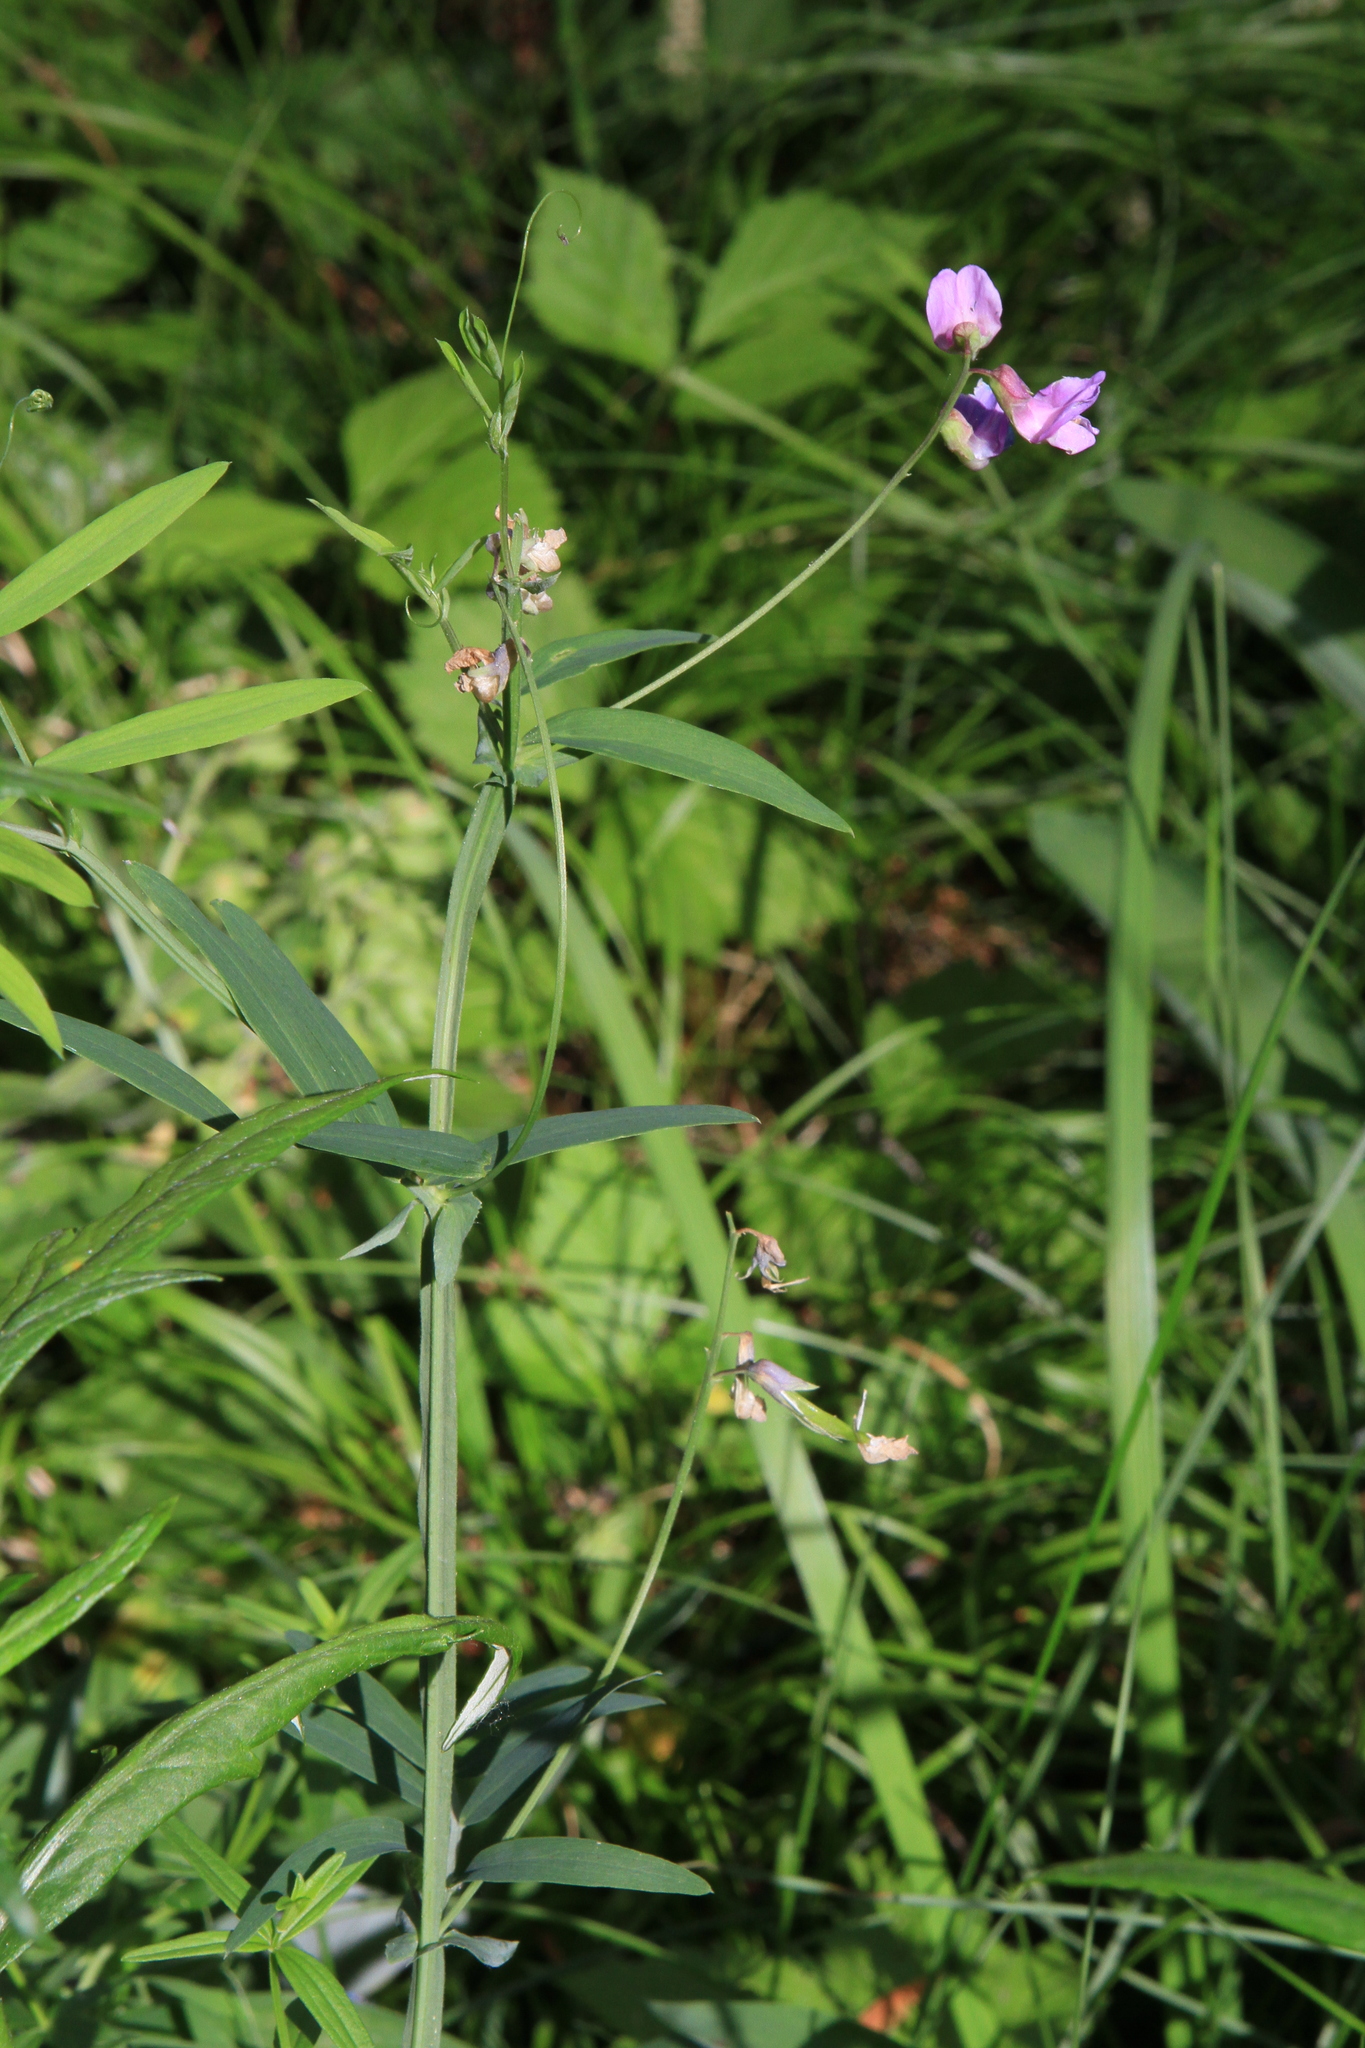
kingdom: Plantae
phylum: Tracheophyta
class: Magnoliopsida
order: Fabales
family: Fabaceae
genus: Lathyrus
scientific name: Lathyrus palustris
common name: Marsh pea
